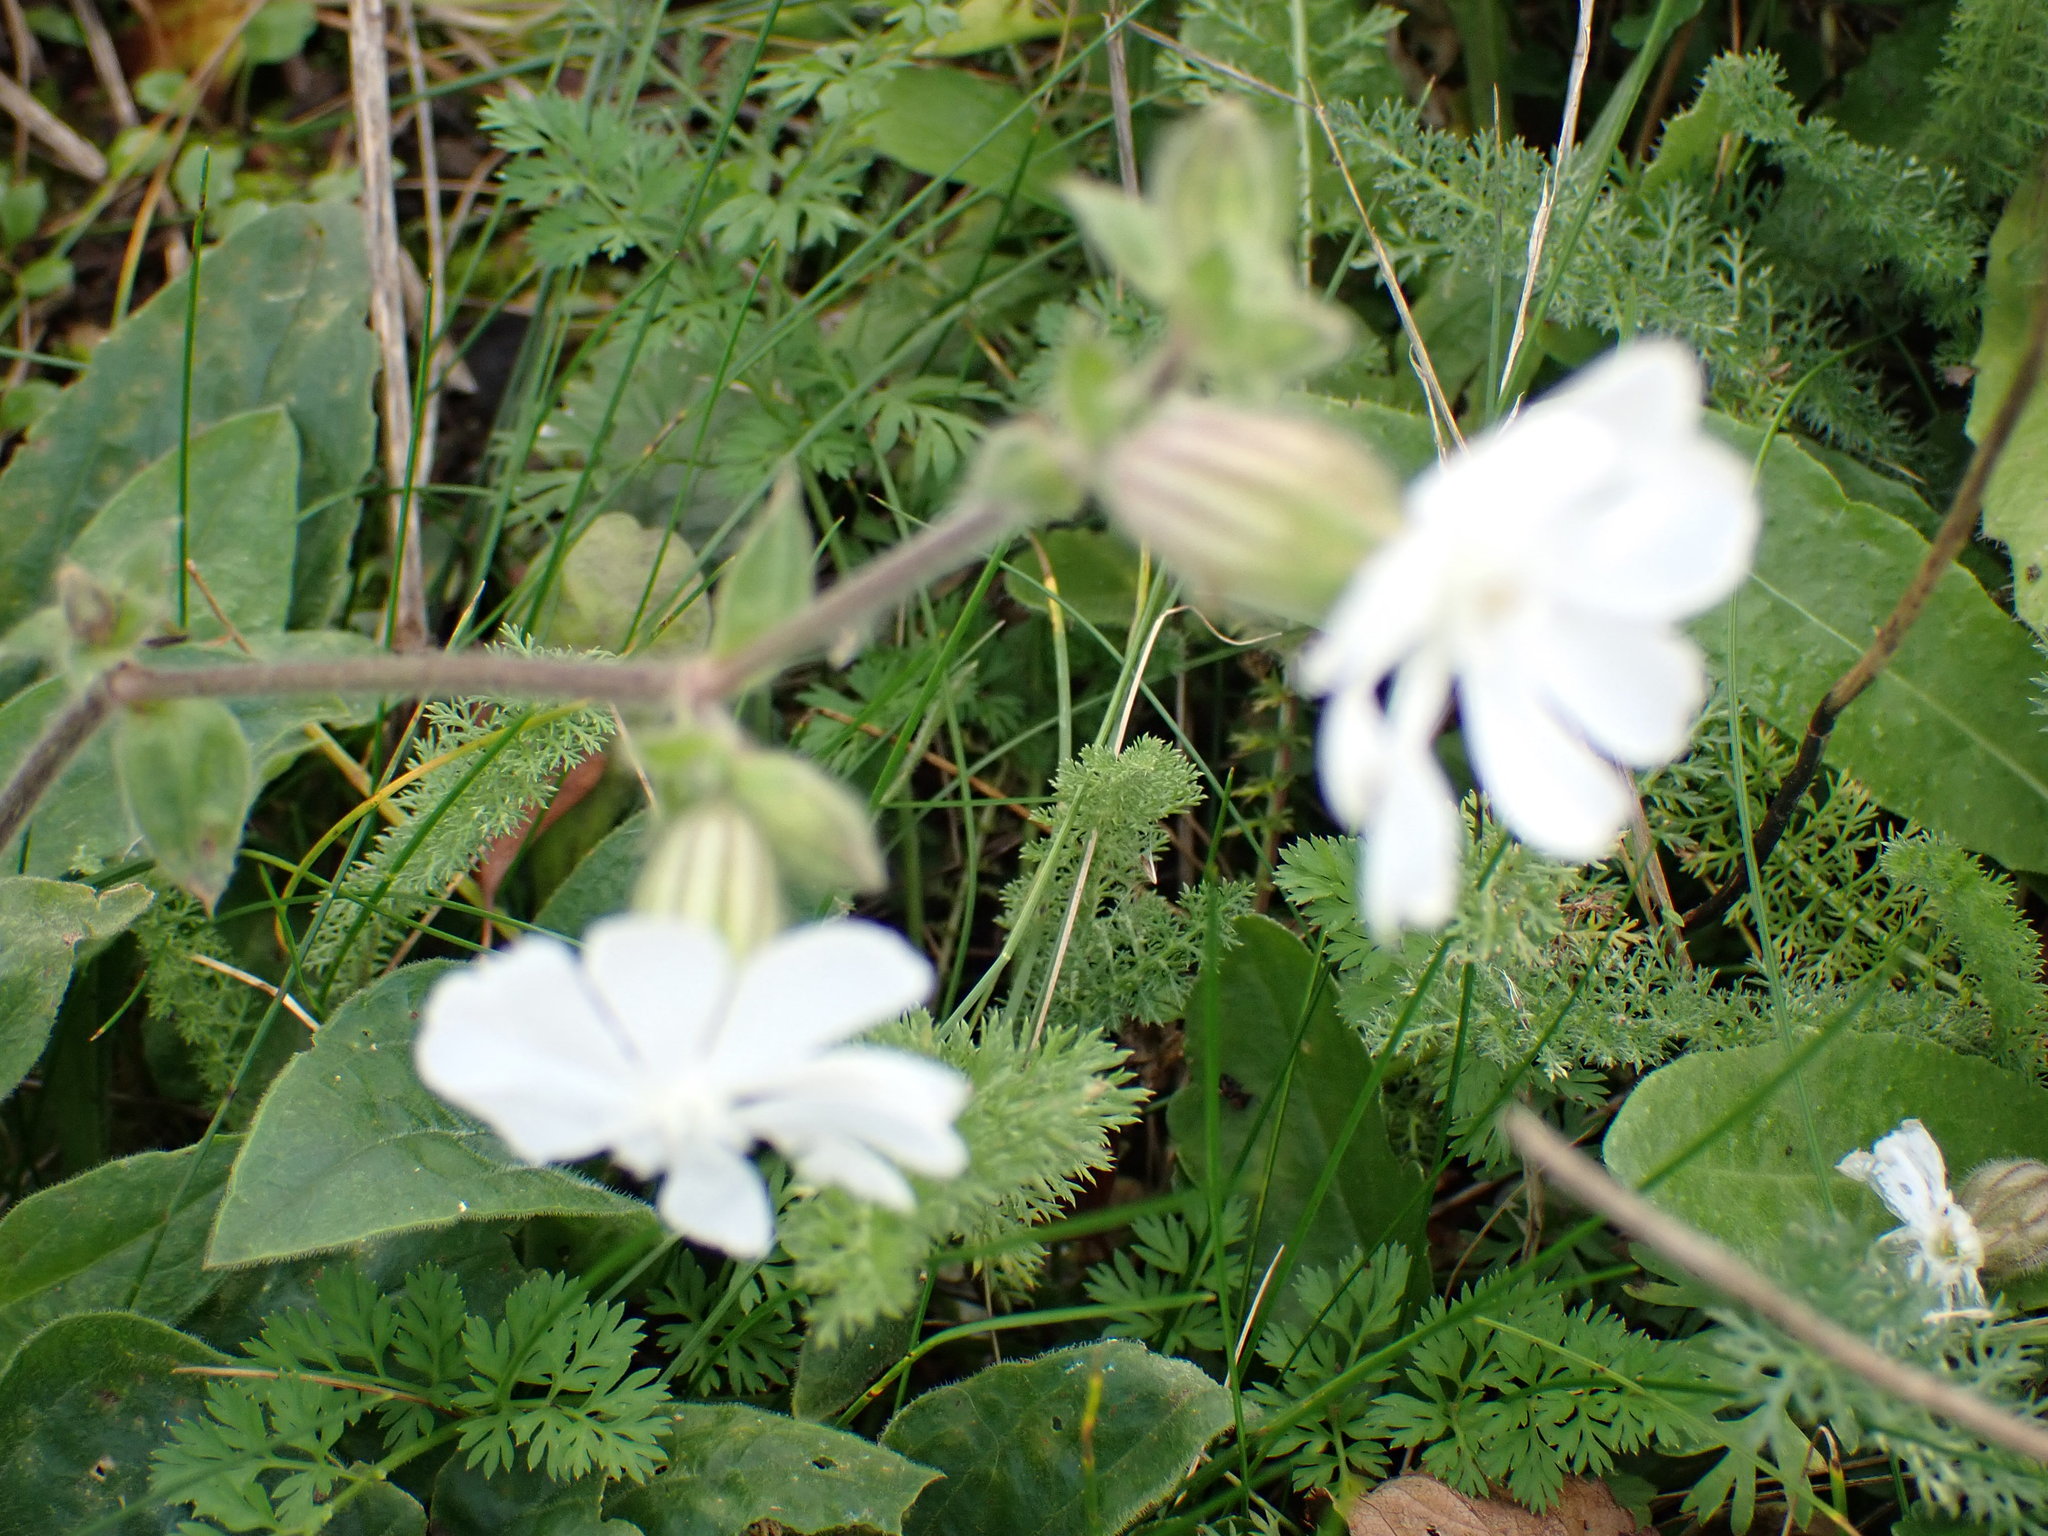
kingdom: Plantae
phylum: Tracheophyta
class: Magnoliopsida
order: Caryophyllales
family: Caryophyllaceae
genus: Silene
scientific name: Silene latifolia
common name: White campion
